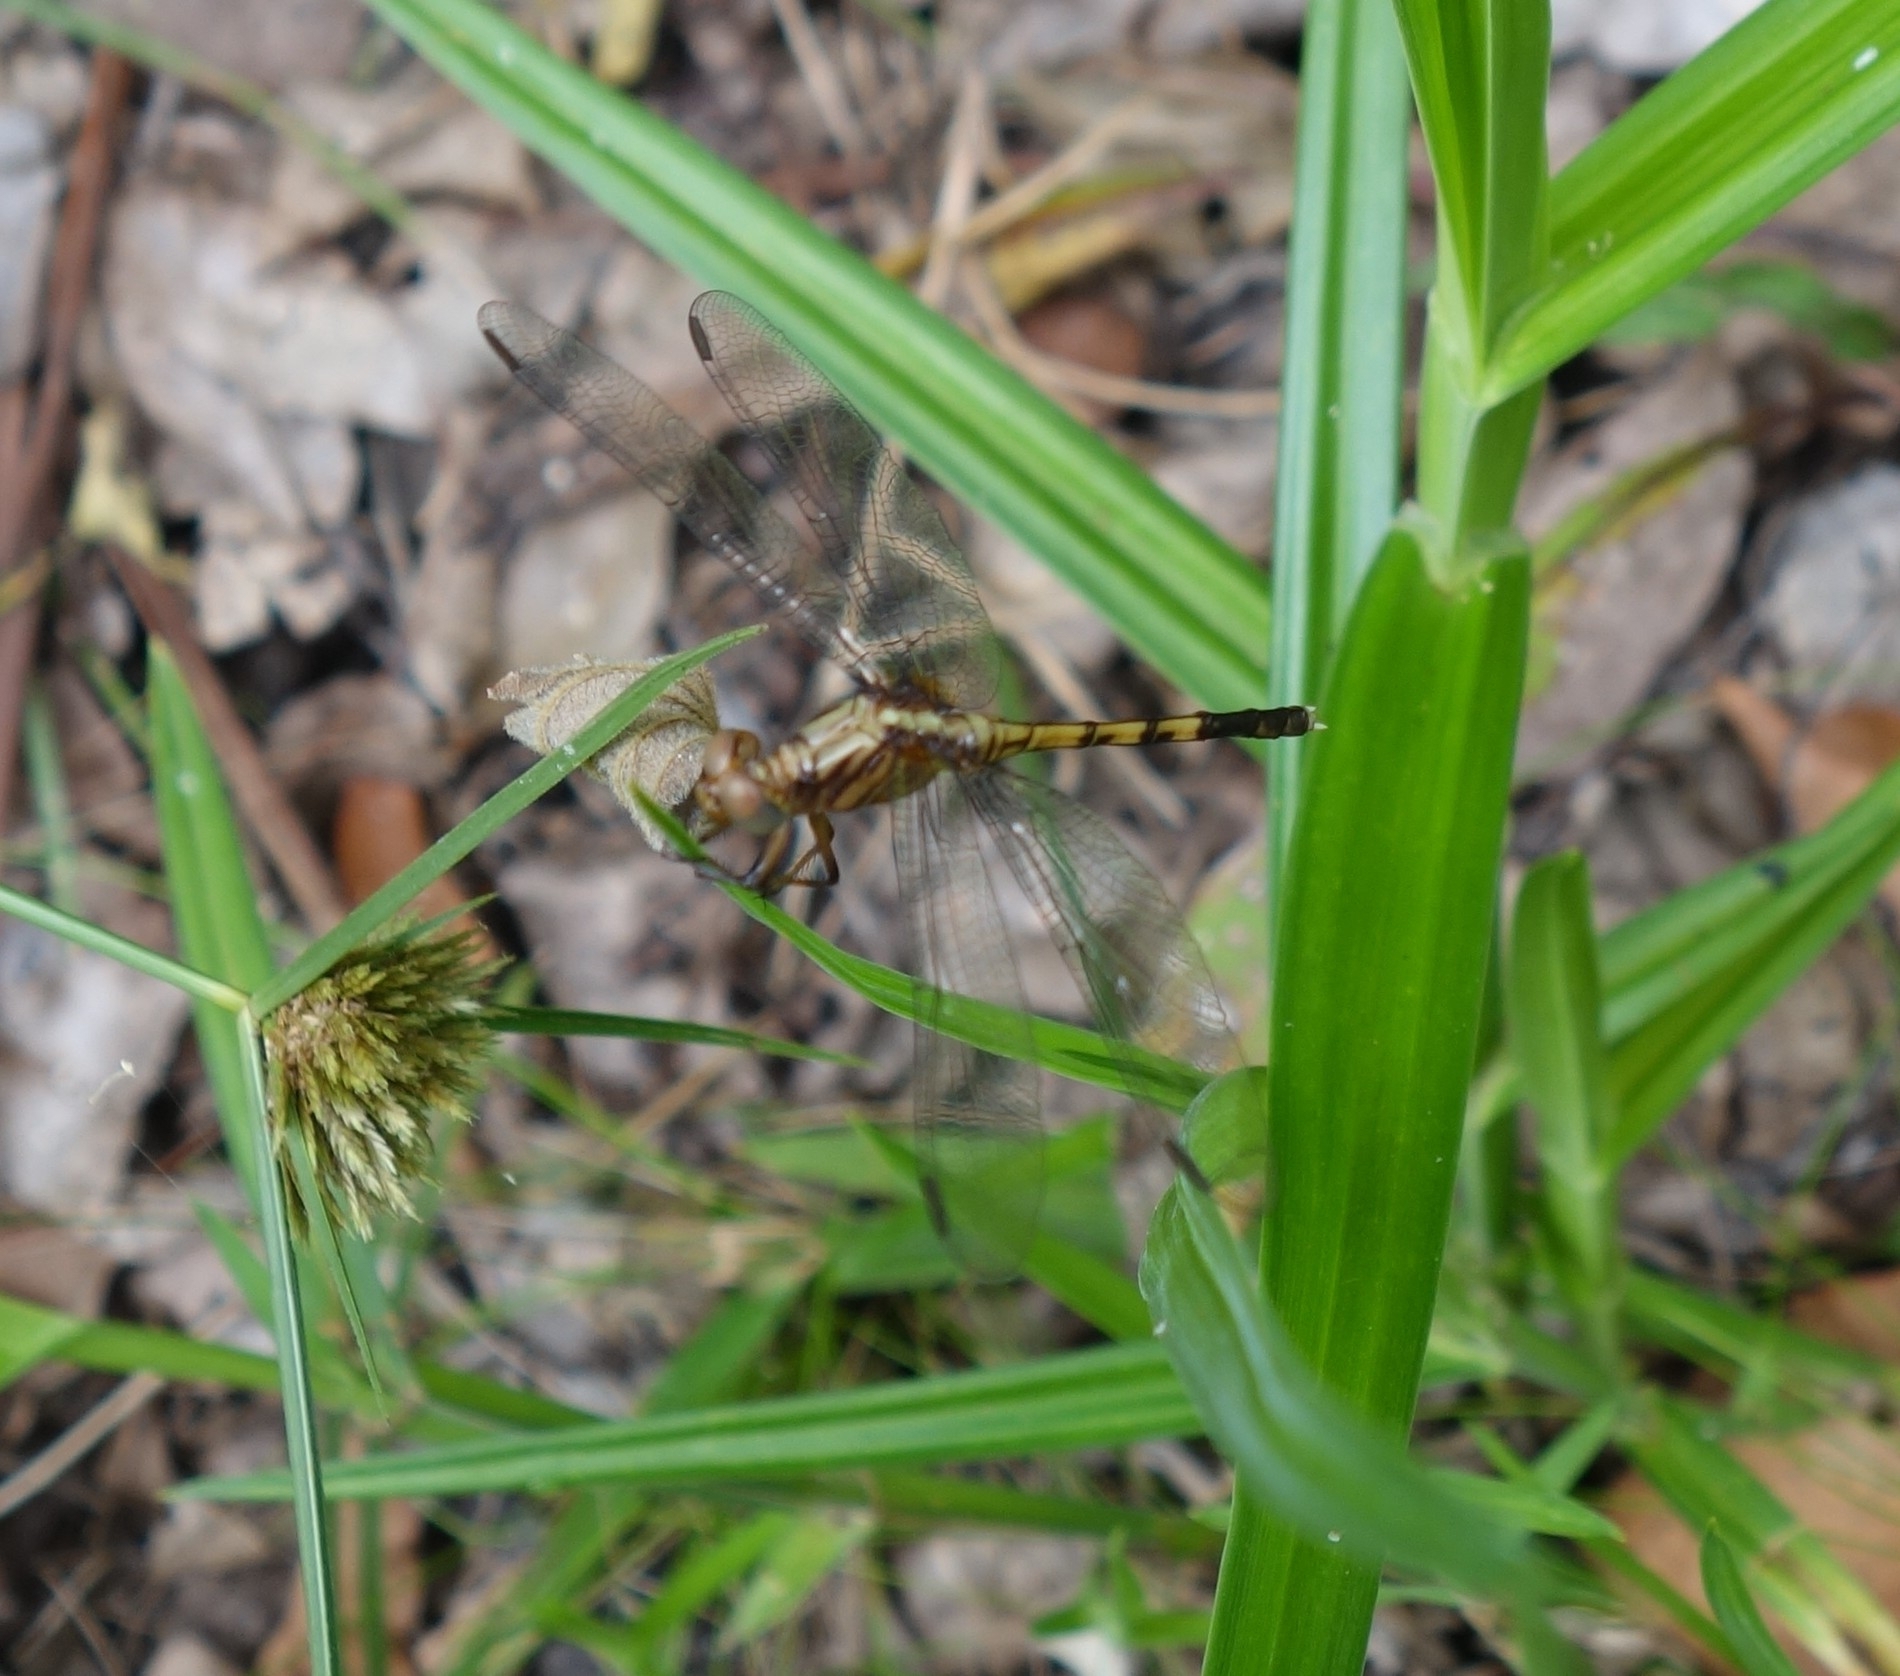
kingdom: Animalia
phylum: Arthropoda
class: Insecta
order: Odonata
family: Libellulidae
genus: Orthetrum
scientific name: Orthetrum julia
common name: Julia skimmer
